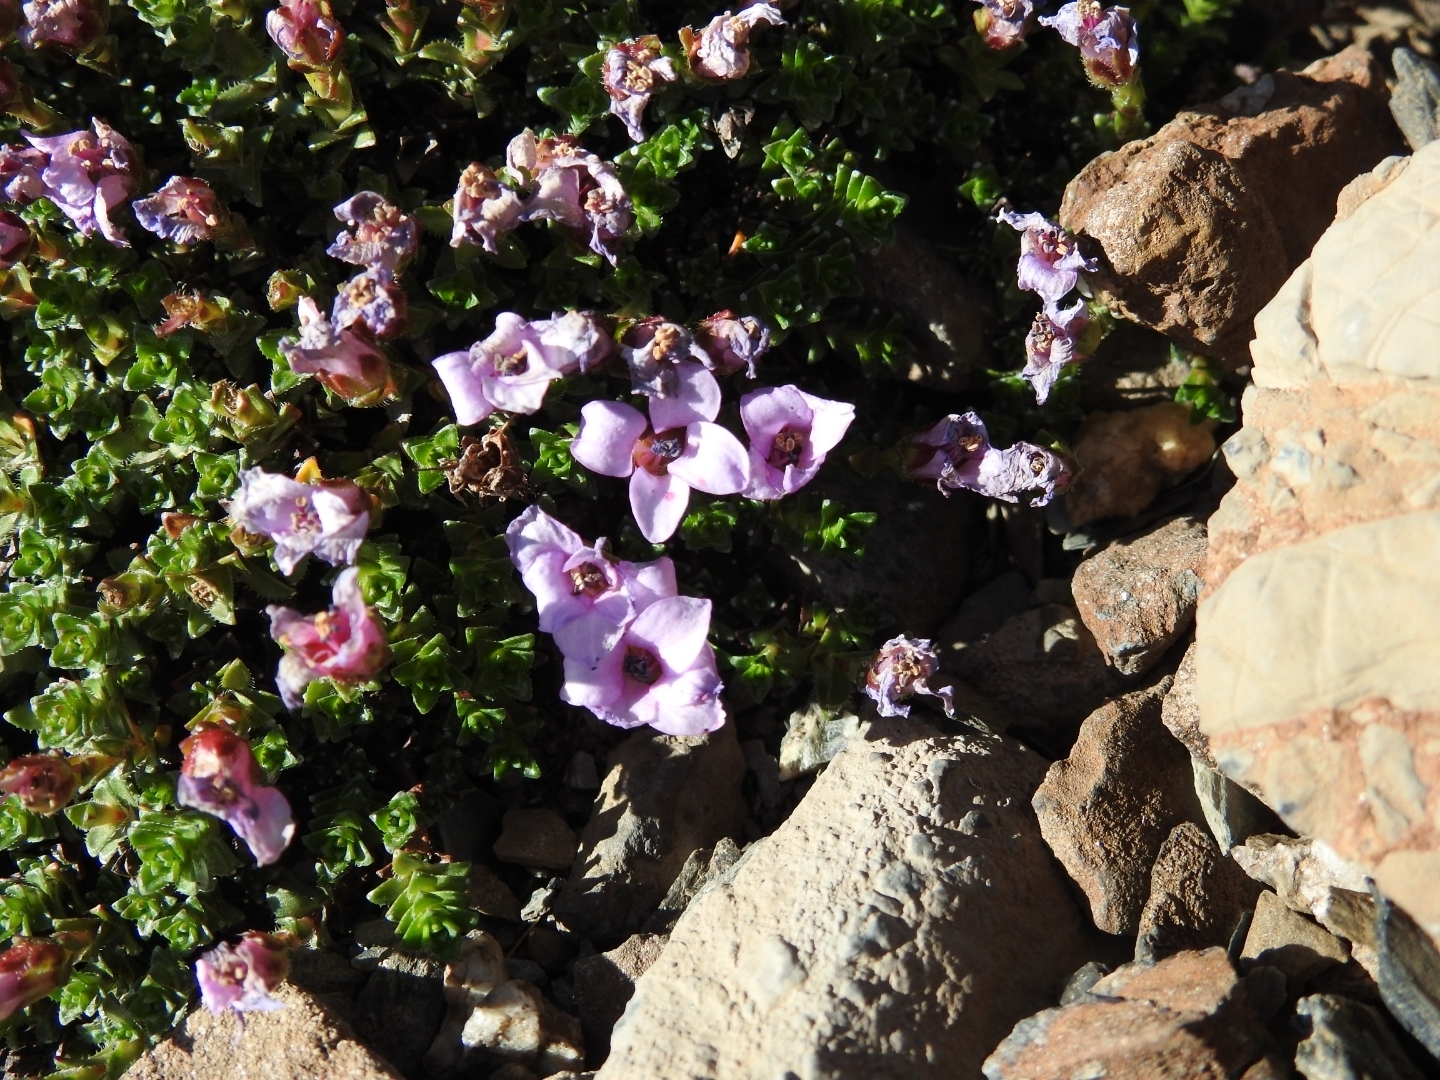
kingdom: Plantae
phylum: Tracheophyta
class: Magnoliopsida
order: Saxifragales
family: Saxifragaceae
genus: Saxifraga
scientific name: Saxifraga oppositifolia
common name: Purple saxifrage
